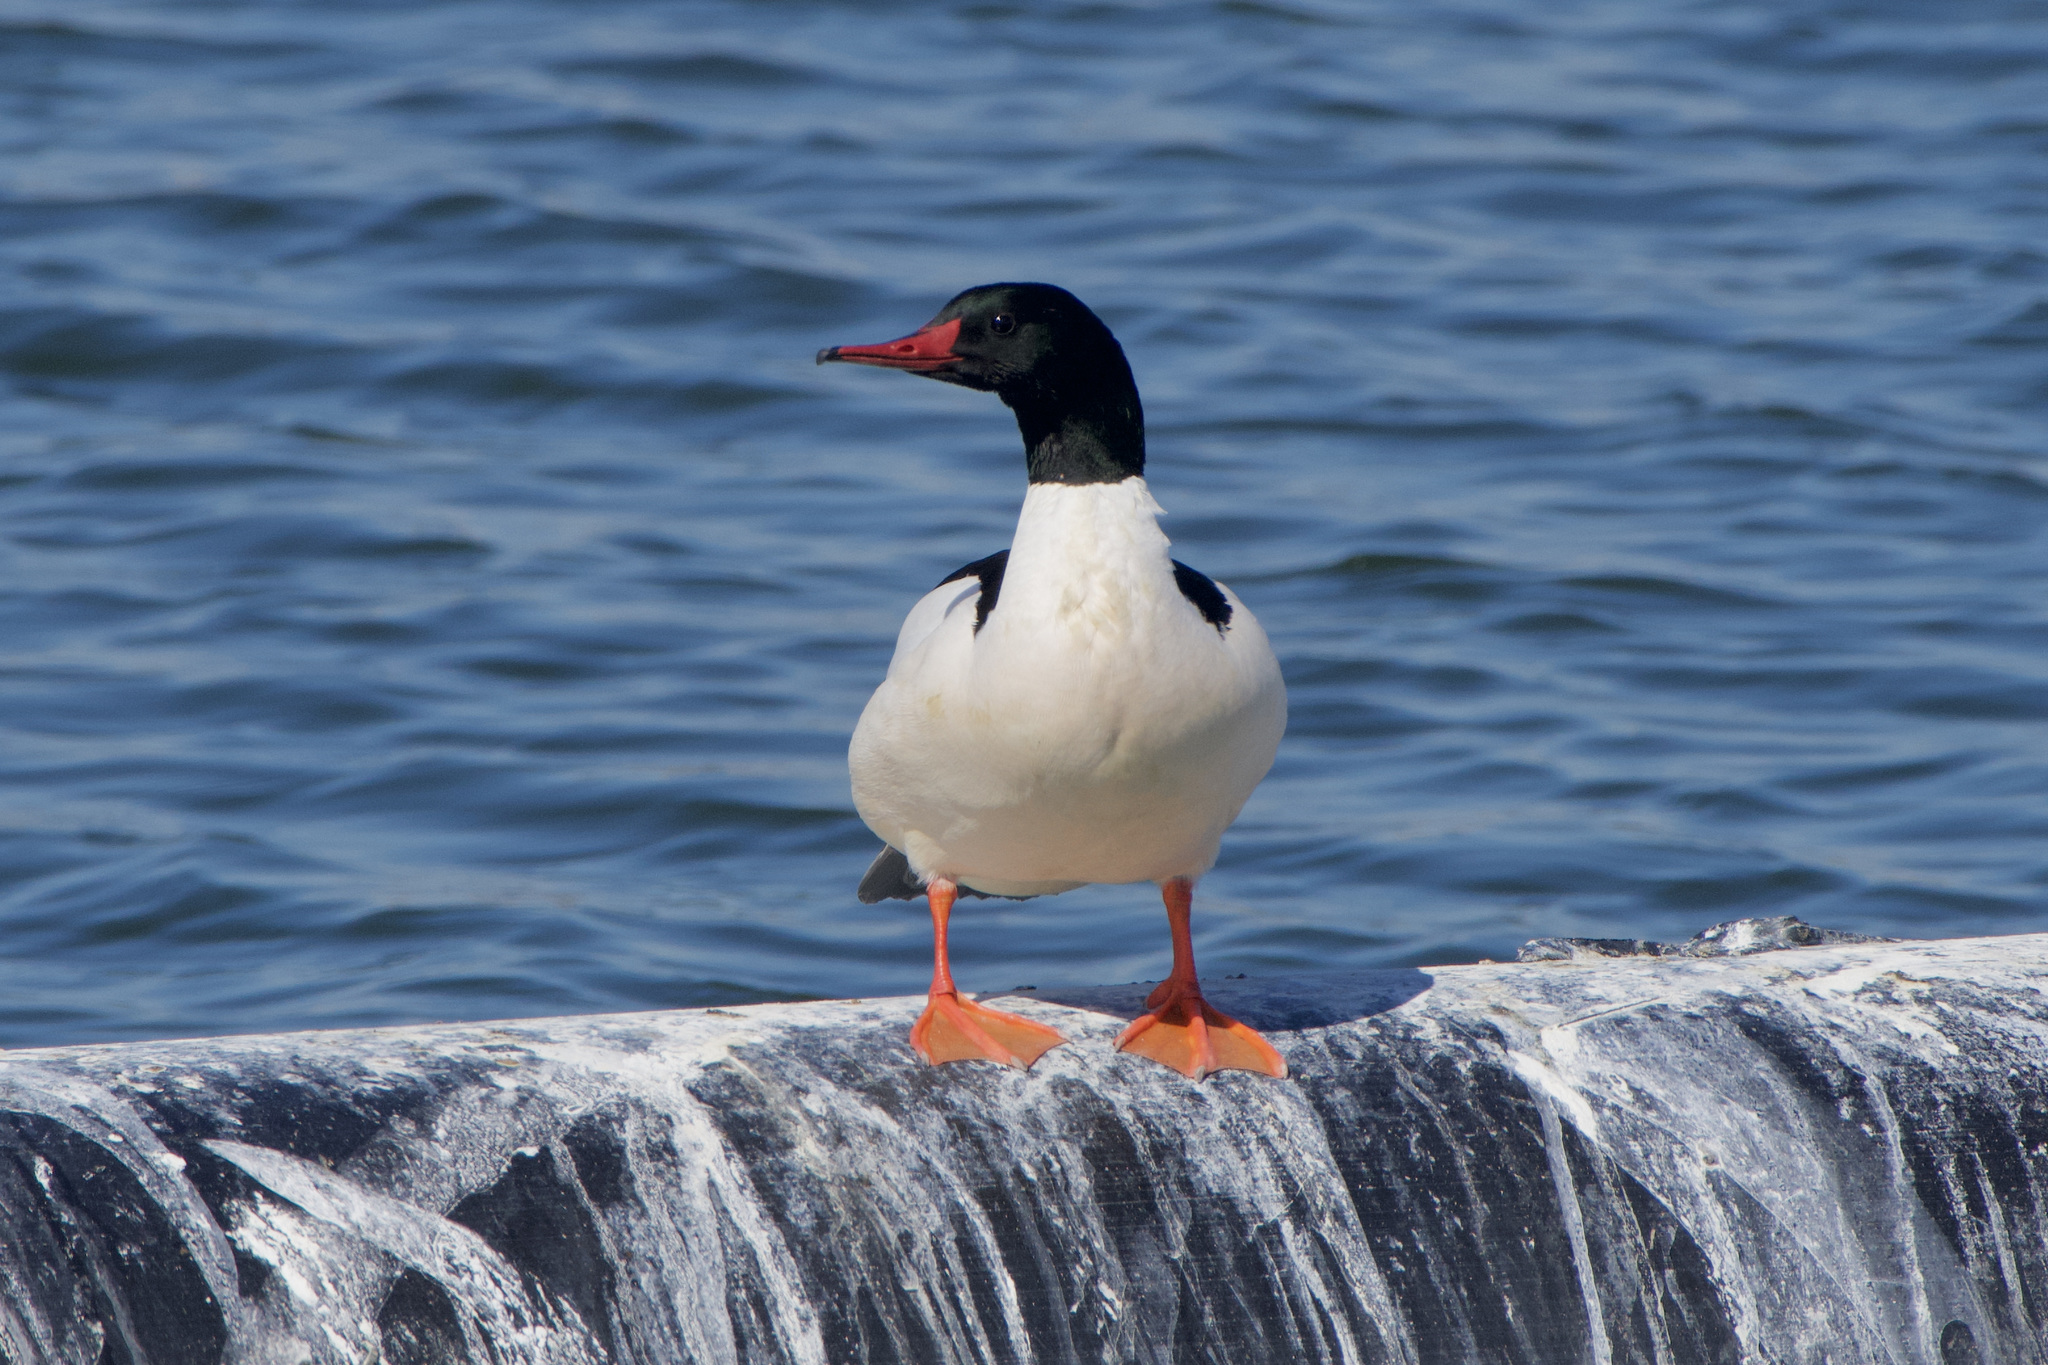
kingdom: Animalia
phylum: Chordata
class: Aves
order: Anseriformes
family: Anatidae
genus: Mergus
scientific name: Mergus merganser
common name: Common merganser
